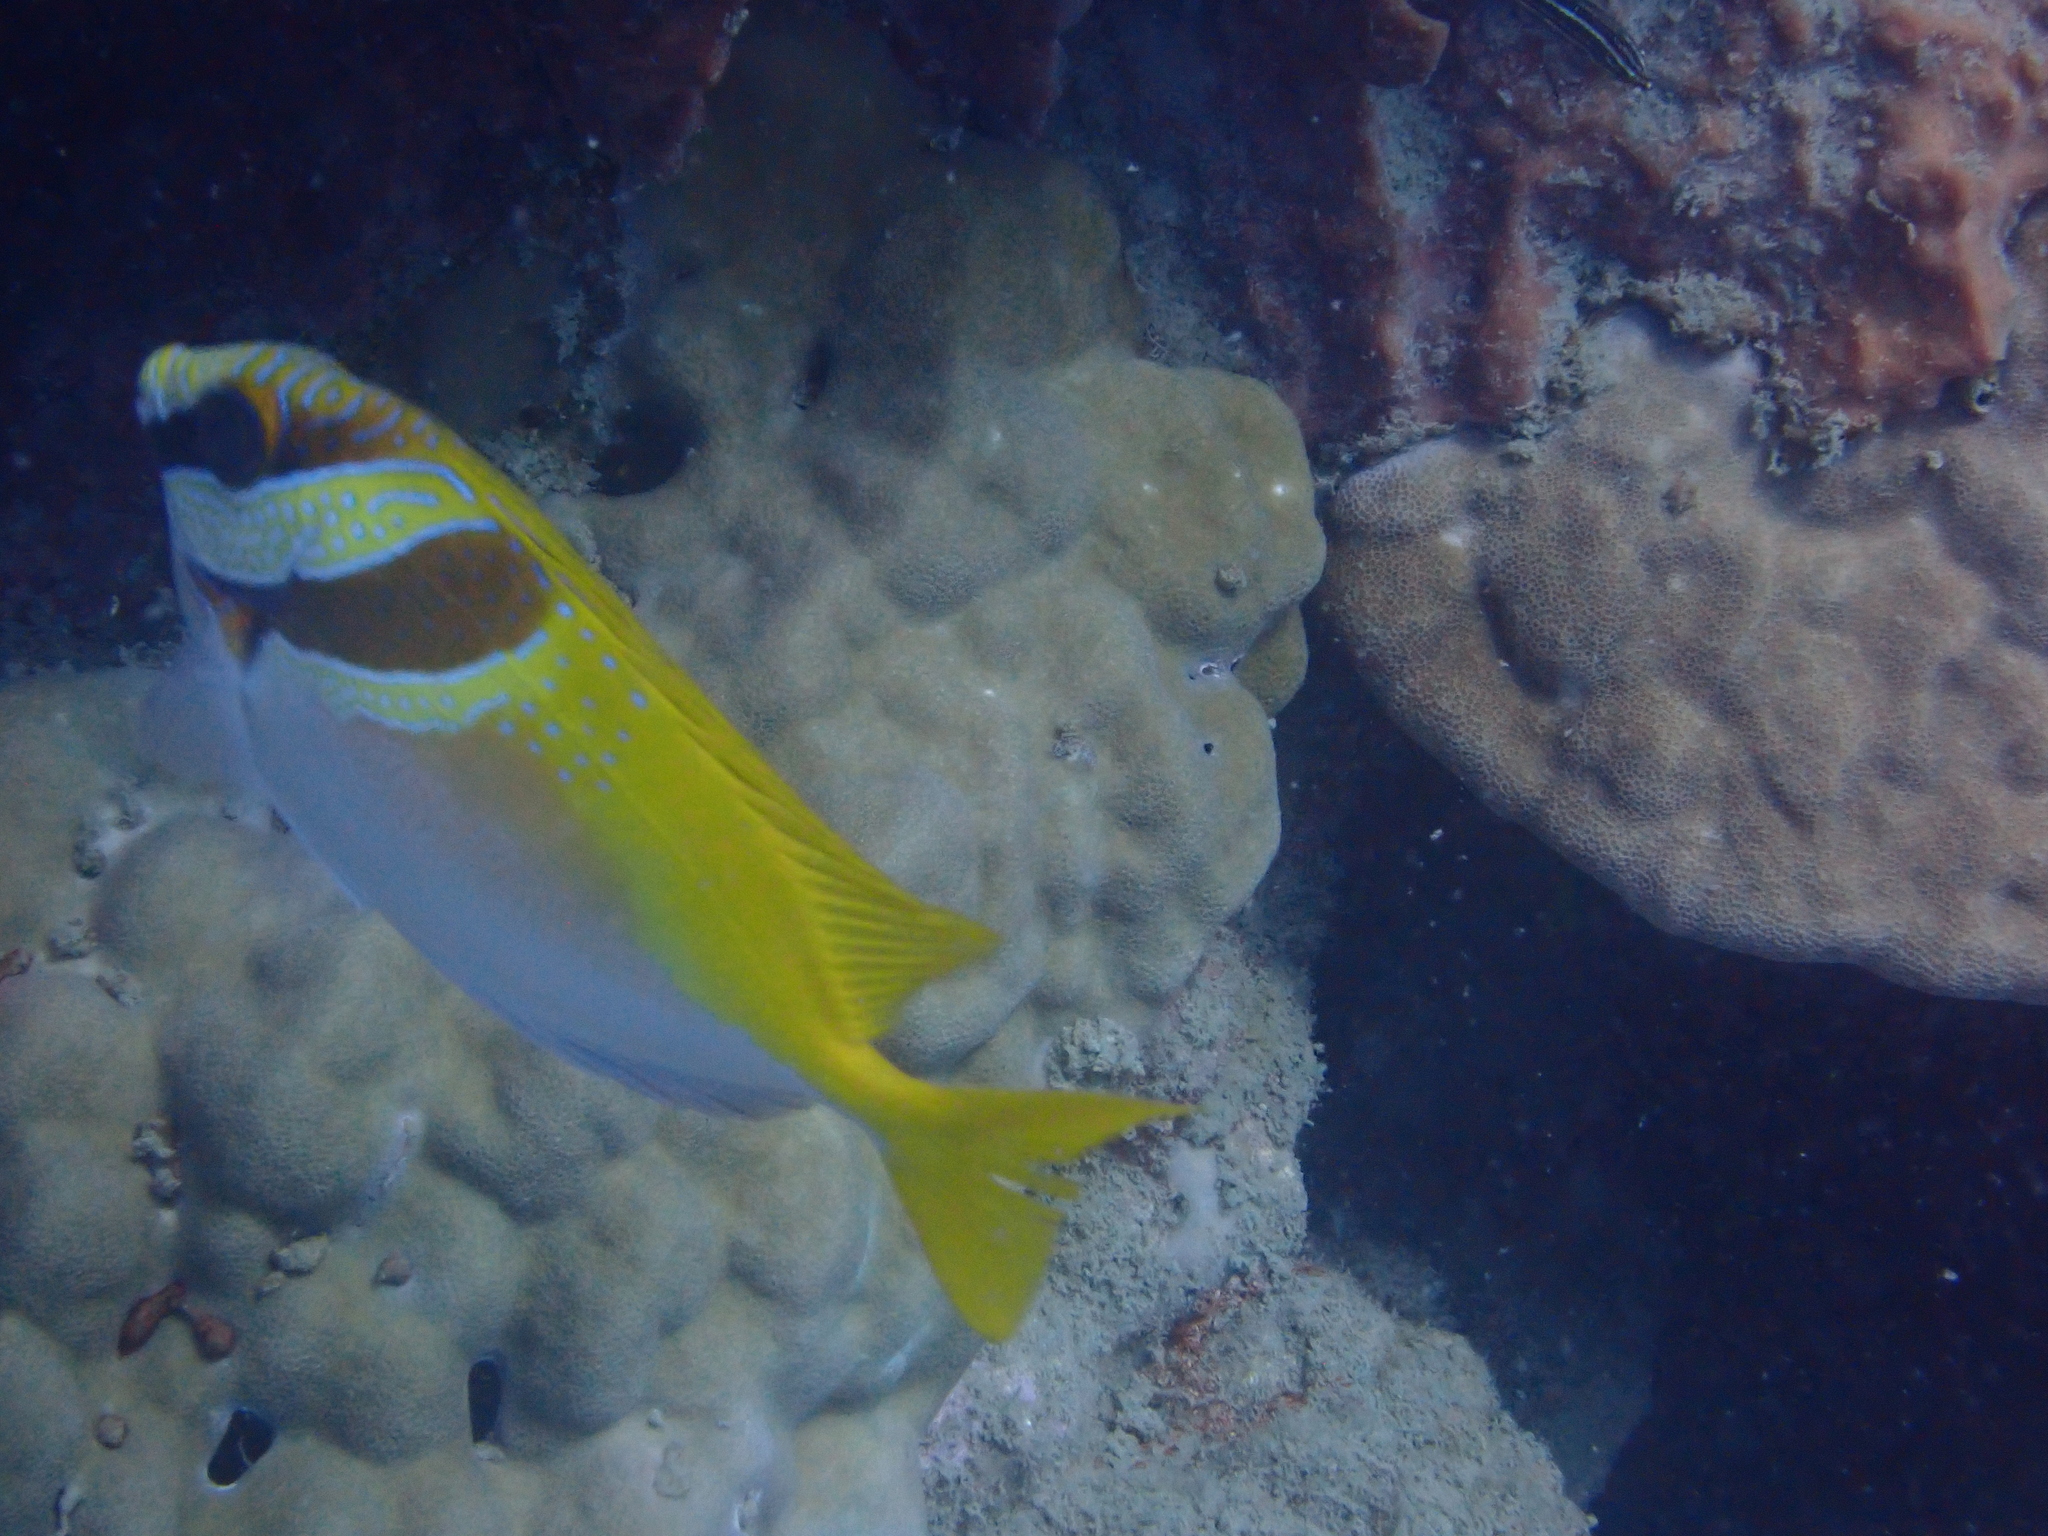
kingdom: Animalia
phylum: Chordata
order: Perciformes
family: Siganidae
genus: Siganus
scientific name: Siganus virgatus
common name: Barhead spinefoot
